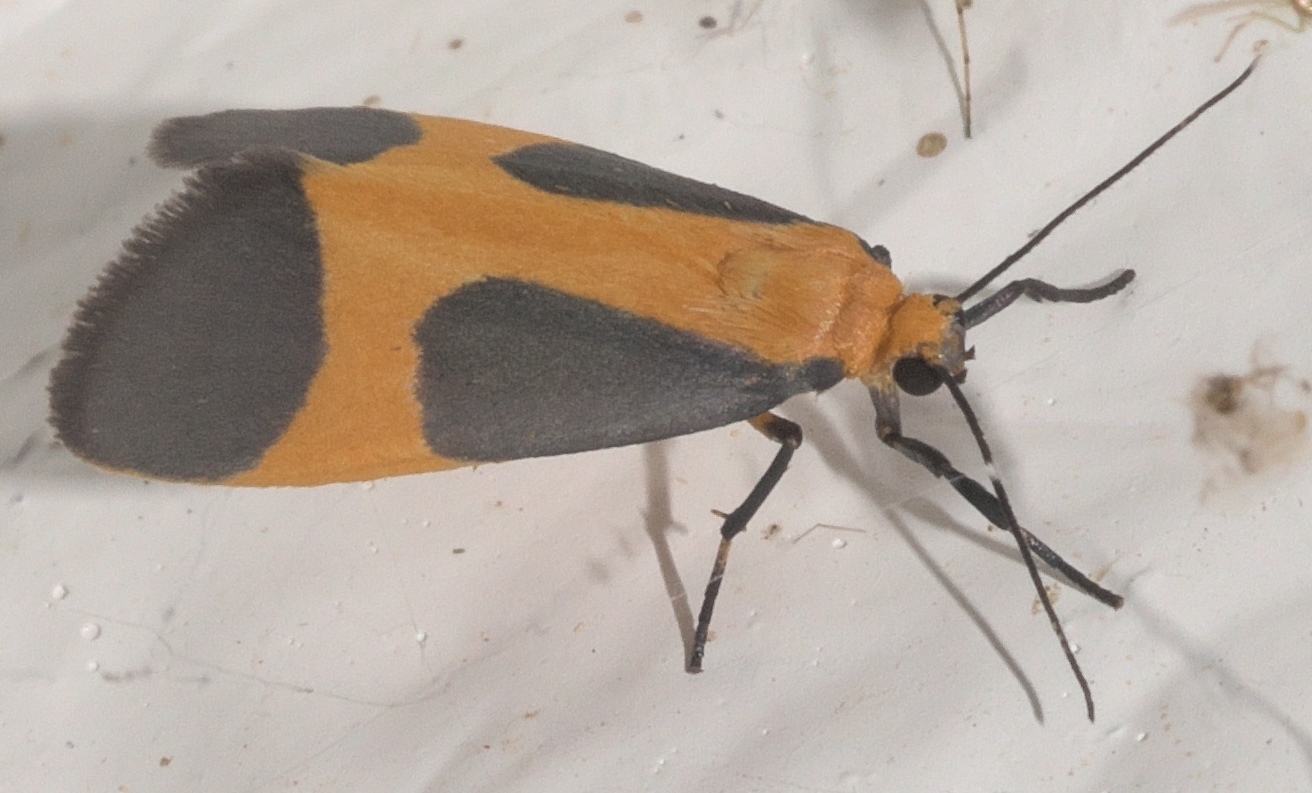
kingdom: Animalia
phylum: Arthropoda
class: Insecta
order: Lepidoptera
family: Erebidae
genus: Cisthene
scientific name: Cisthene picta
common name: Pictured lichen moth
